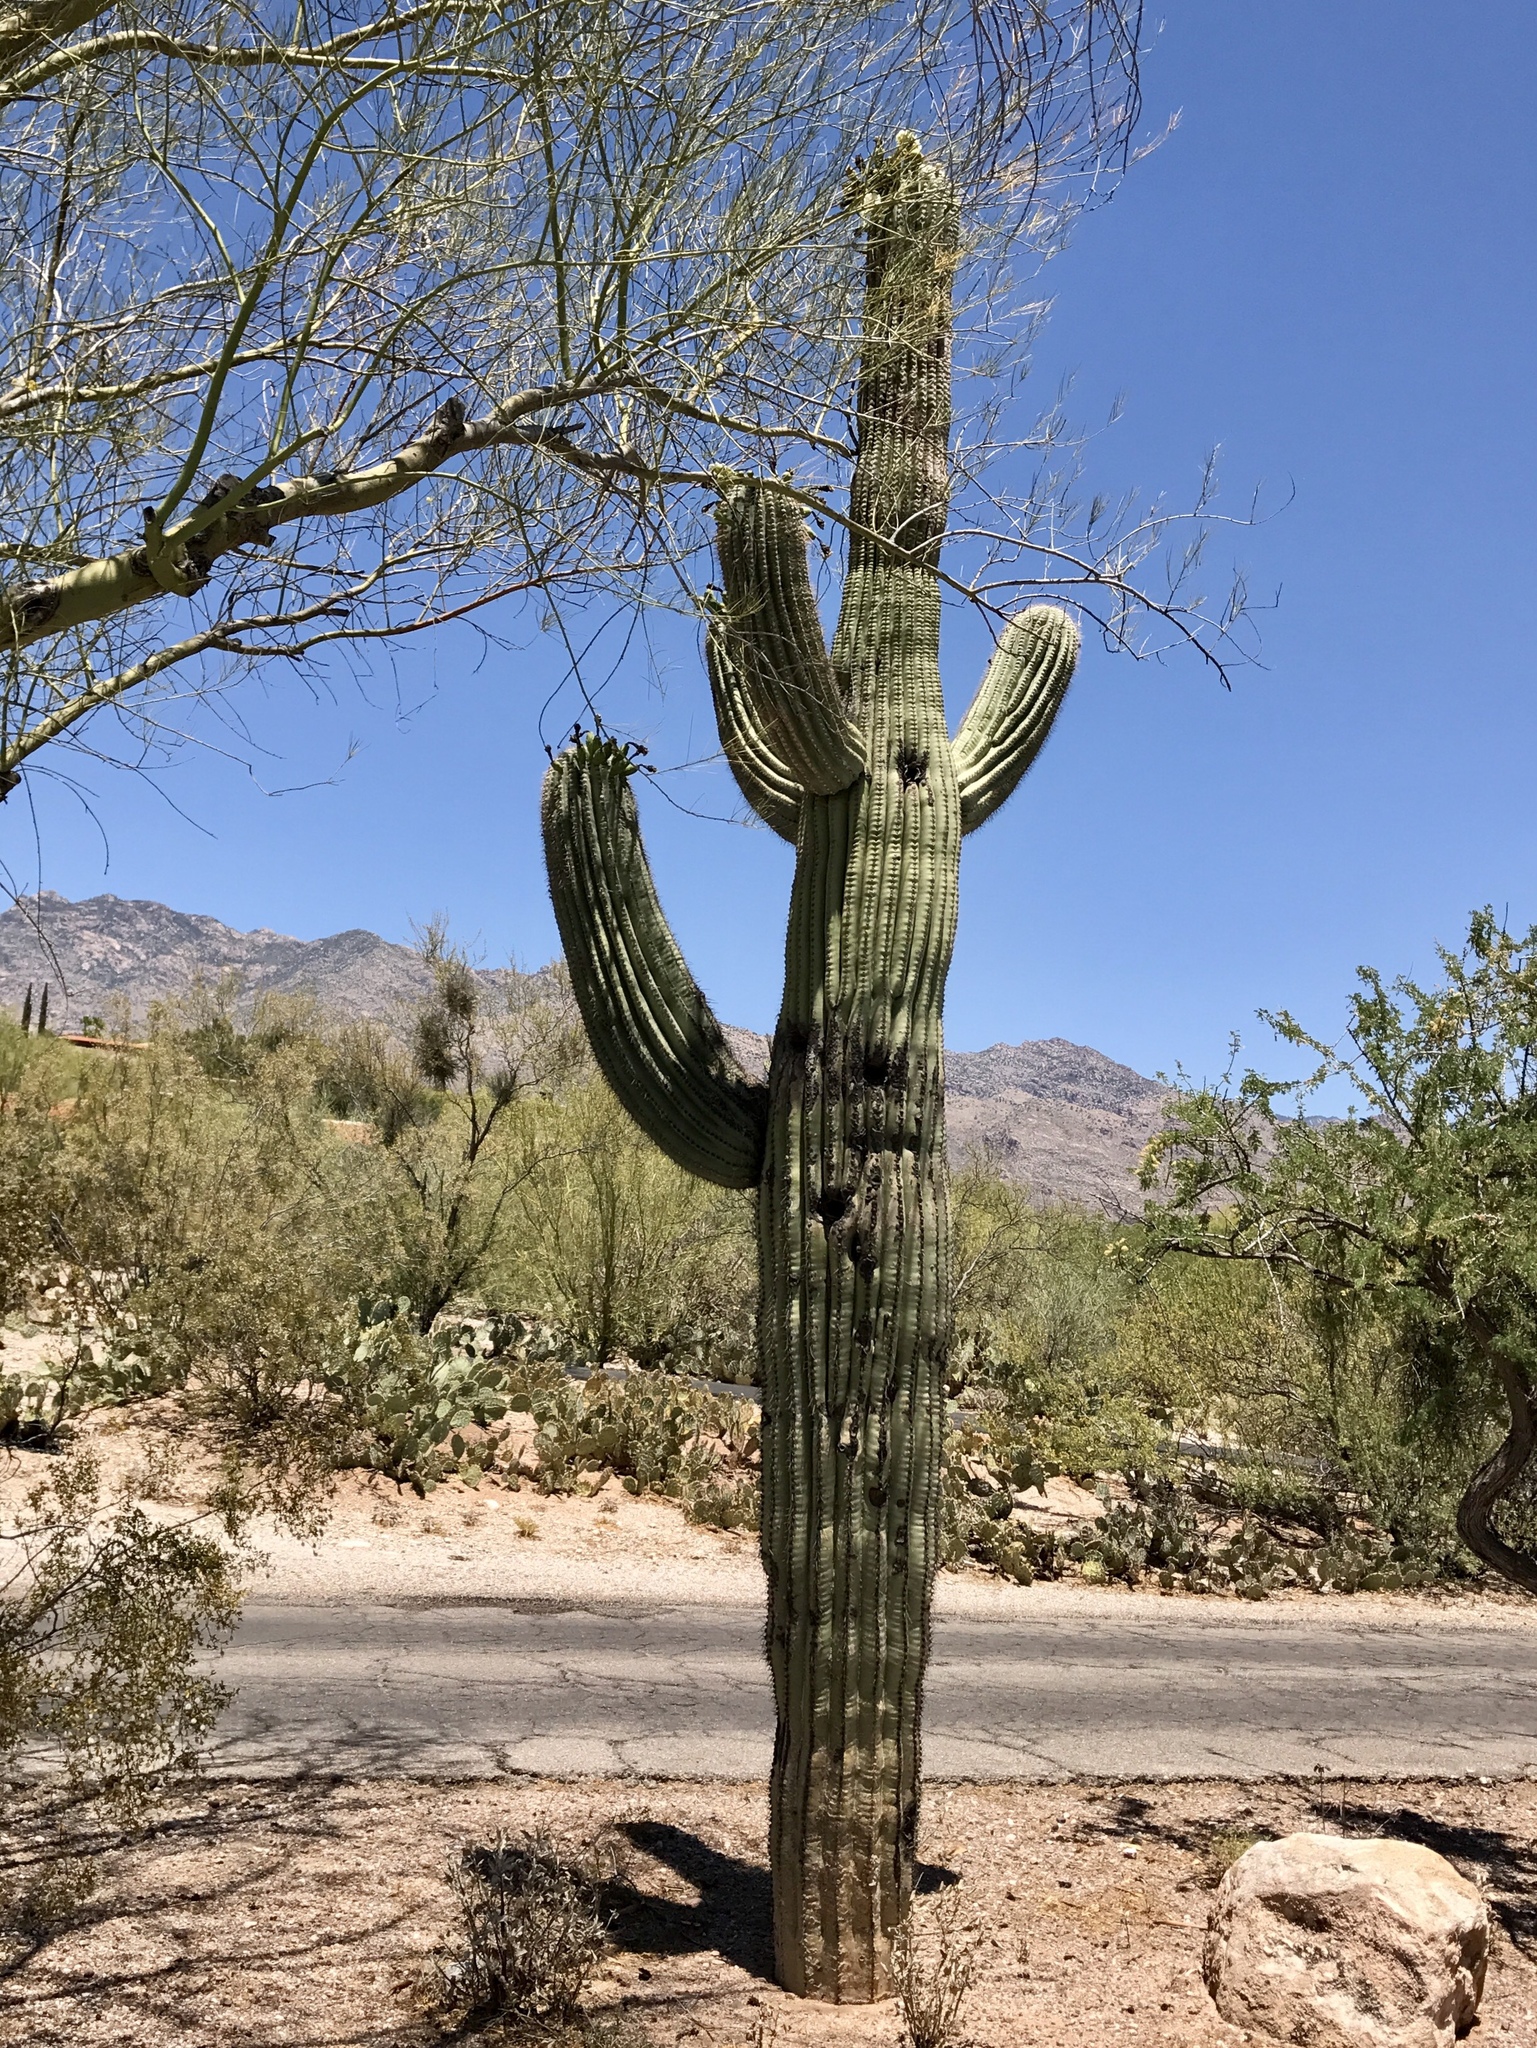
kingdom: Plantae
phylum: Tracheophyta
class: Magnoliopsida
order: Caryophyllales
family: Cactaceae
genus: Carnegiea
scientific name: Carnegiea gigantea
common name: Saguaro
